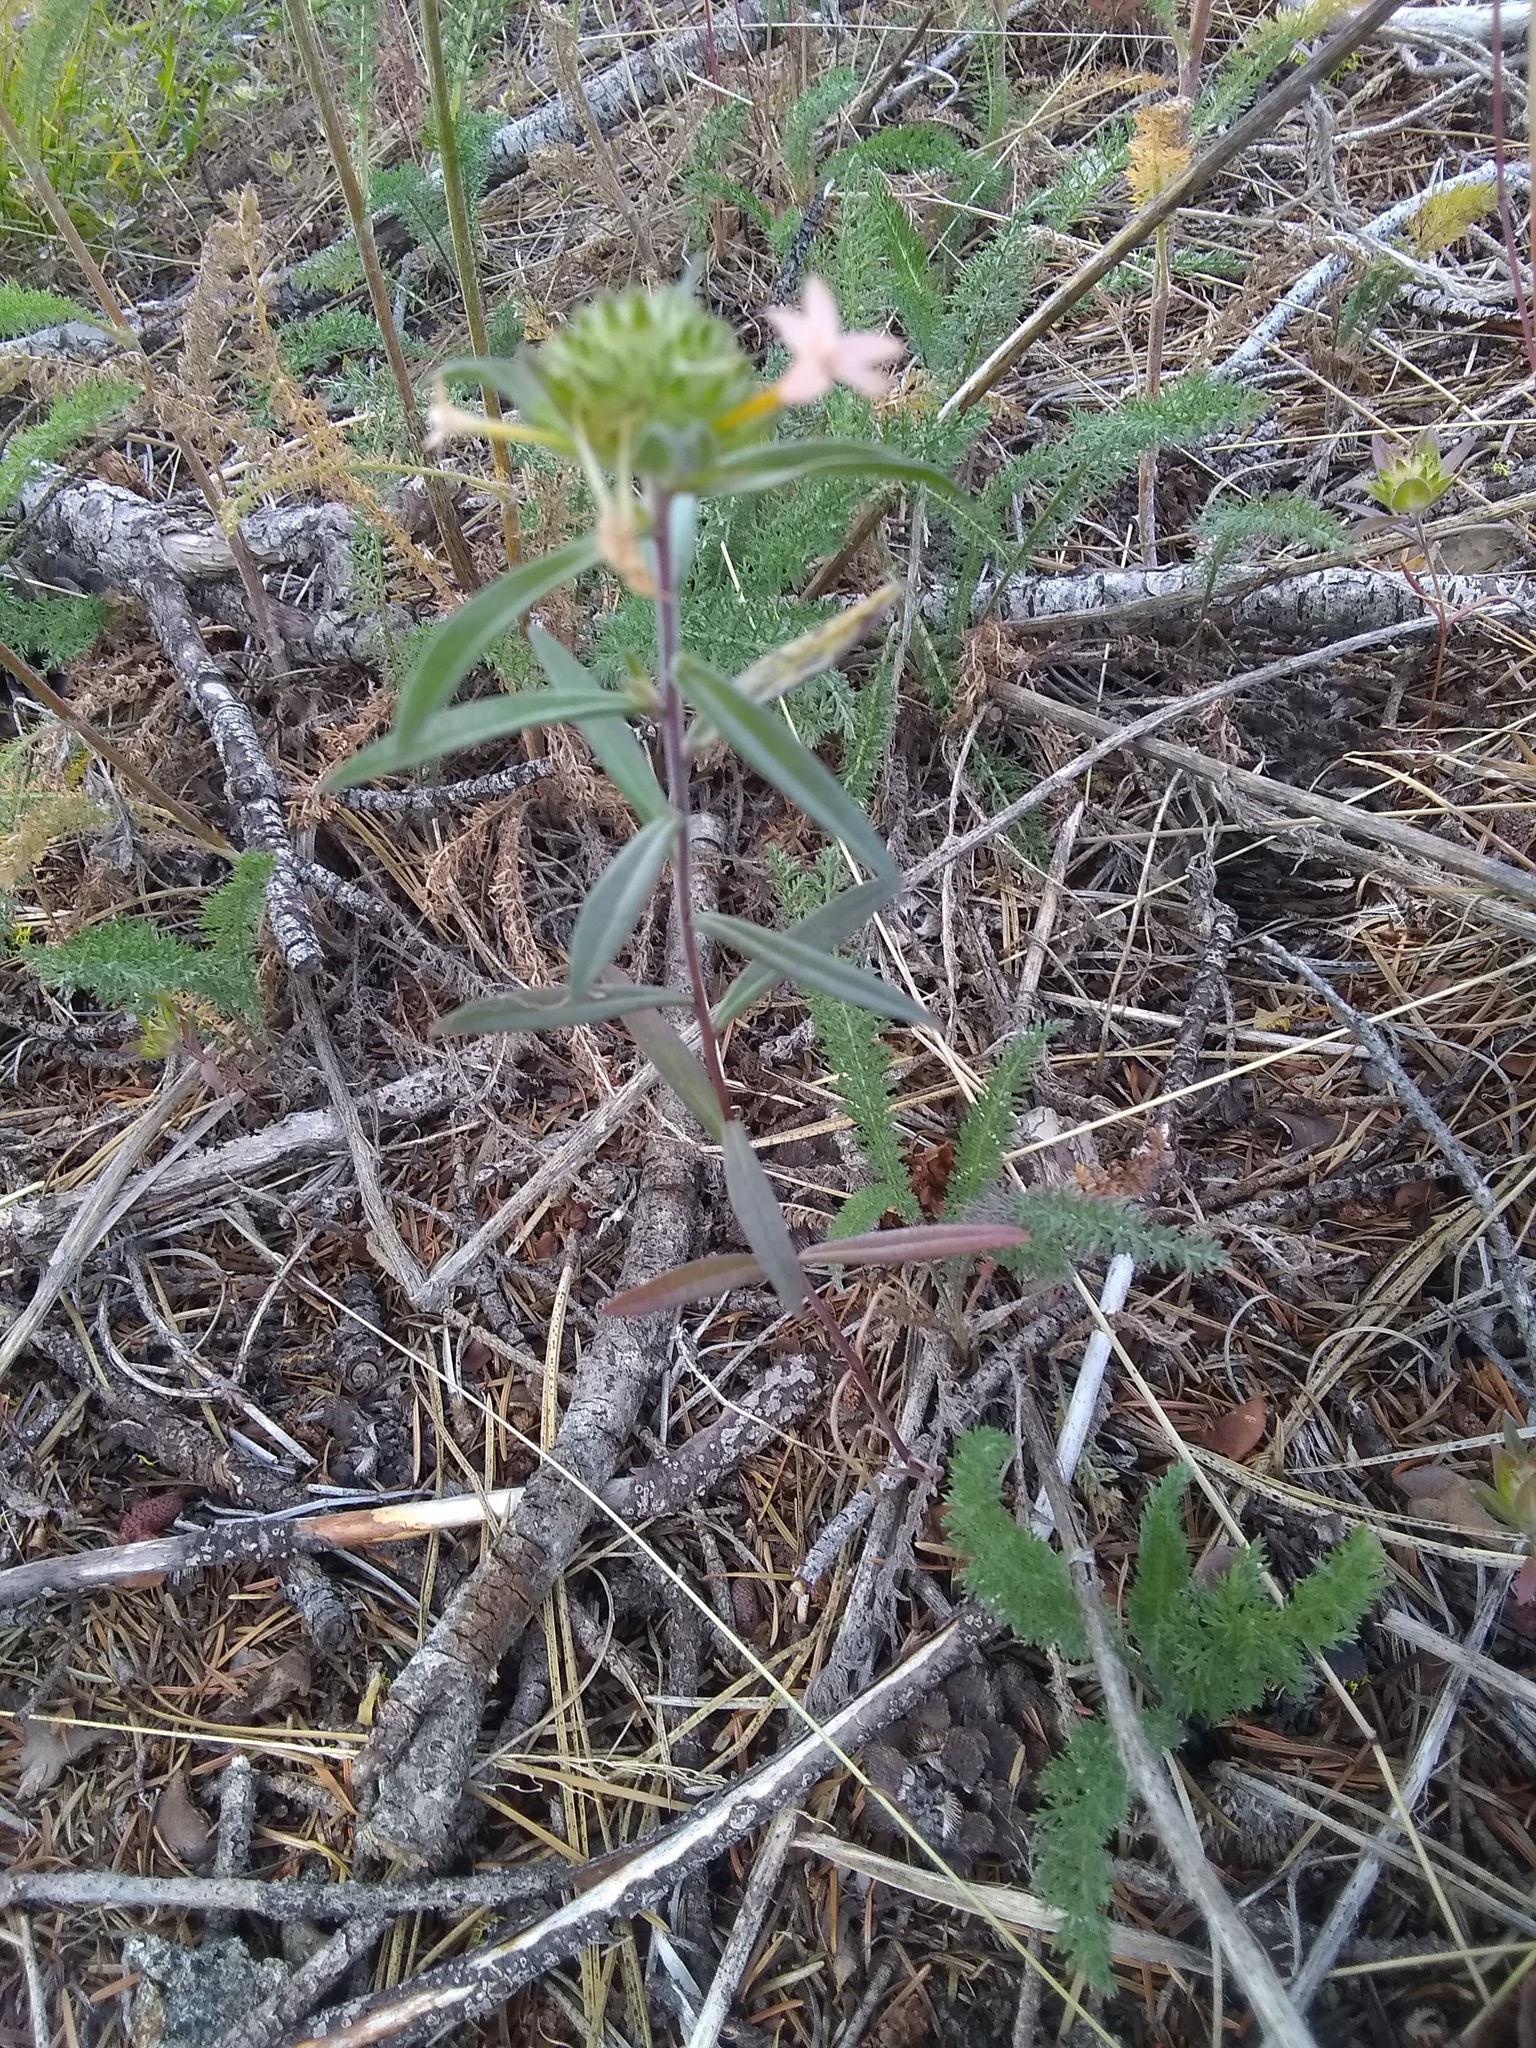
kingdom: Plantae
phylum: Tracheophyta
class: Magnoliopsida
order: Ericales
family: Polemoniaceae
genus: Collomia
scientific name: Collomia grandiflora
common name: California strawflower
